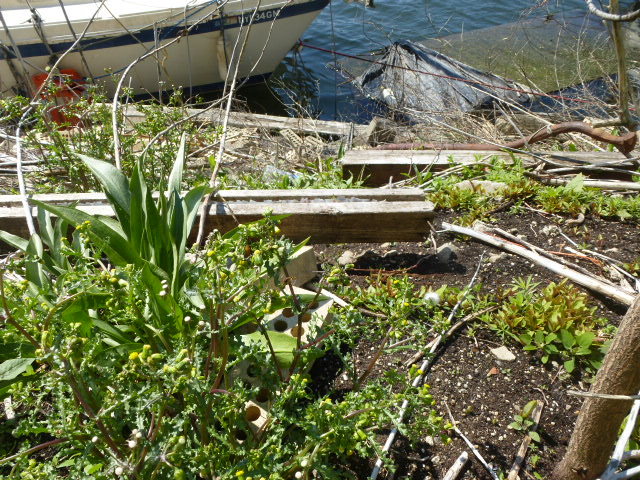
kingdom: Plantae
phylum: Tracheophyta
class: Magnoliopsida
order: Asterales
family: Asteraceae
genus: Solidago
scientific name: Solidago sempervirens
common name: Salt-marsh goldenrod
